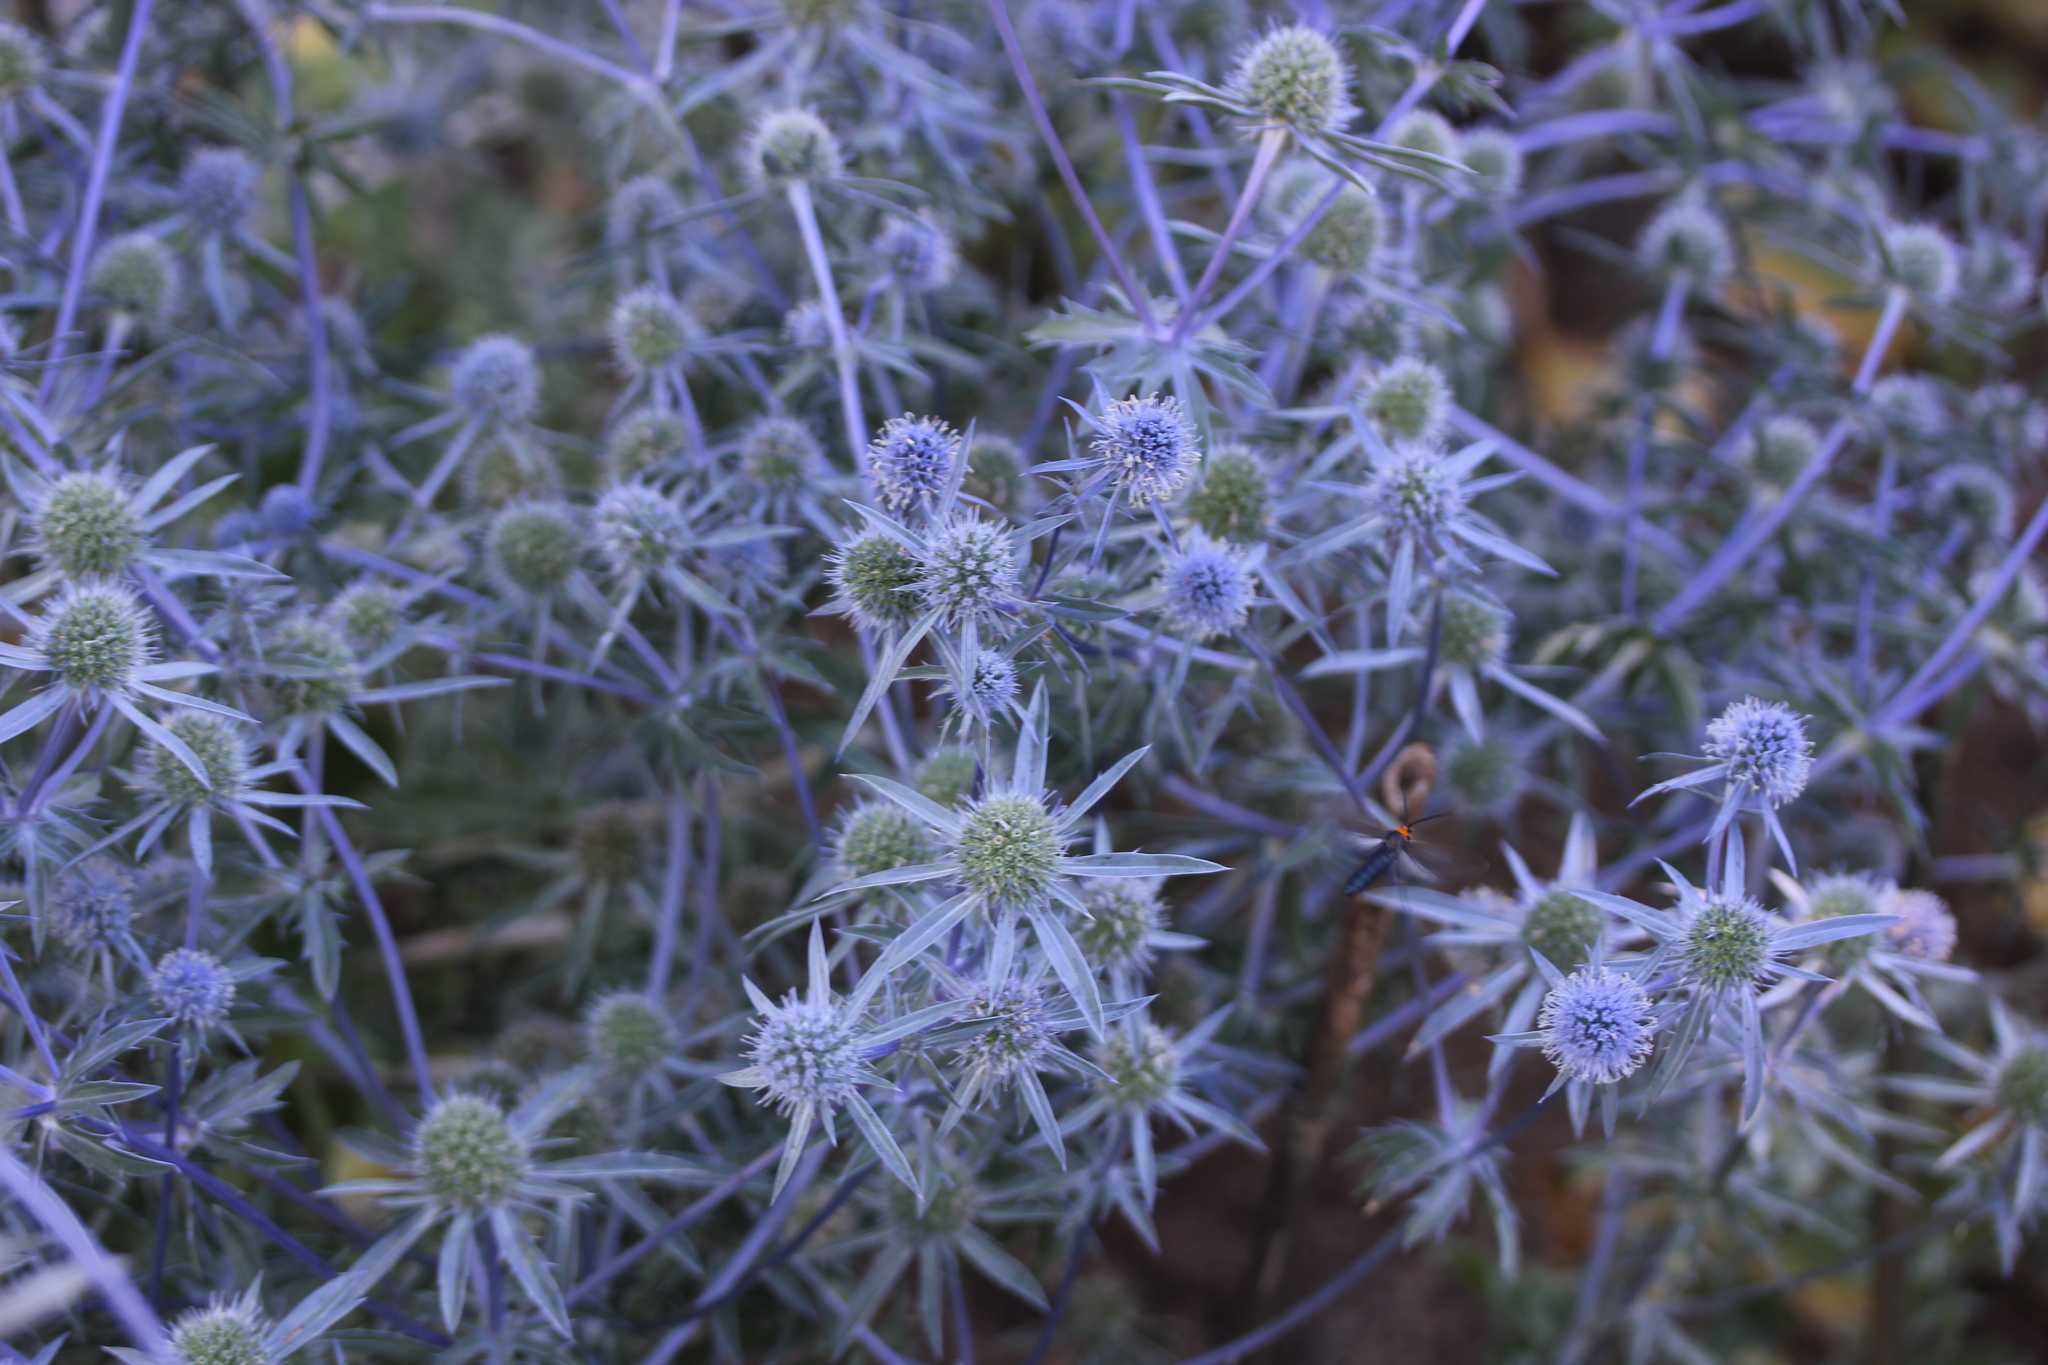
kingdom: Plantae
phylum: Tracheophyta
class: Magnoliopsida
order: Apiales
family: Apiaceae
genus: Eryngium
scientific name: Eryngium planum
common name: Blue eryngo
